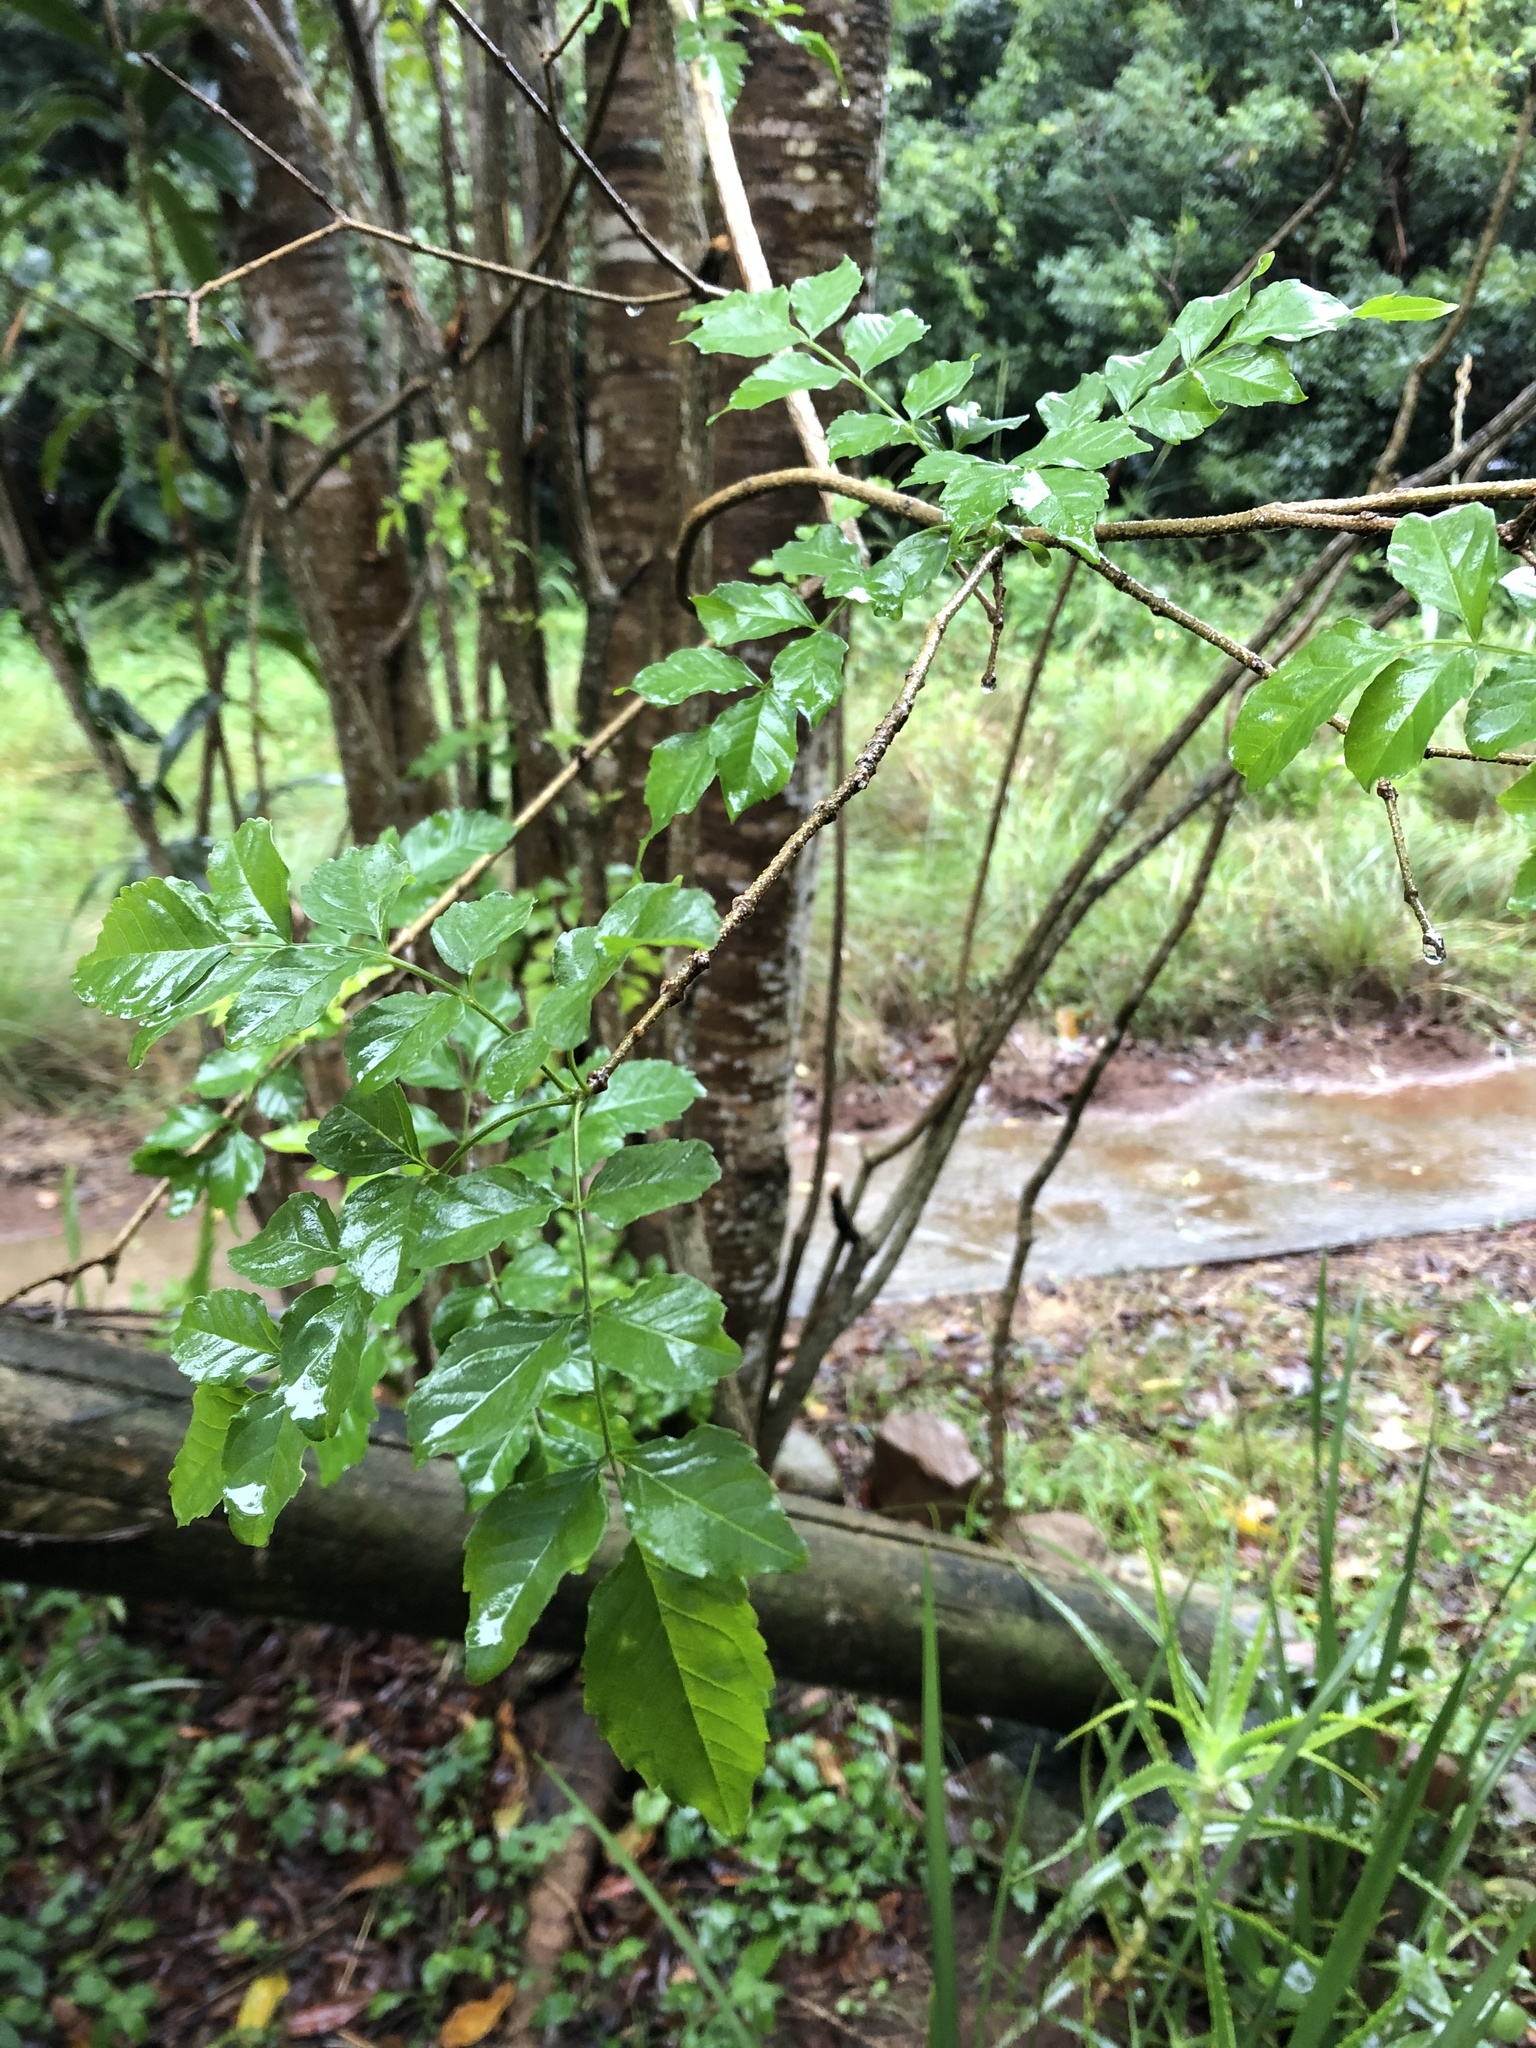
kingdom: Plantae
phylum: Tracheophyta
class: Magnoliopsida
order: Lamiales
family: Bignoniaceae
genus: Tecomaria
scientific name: Tecomaria capensis
